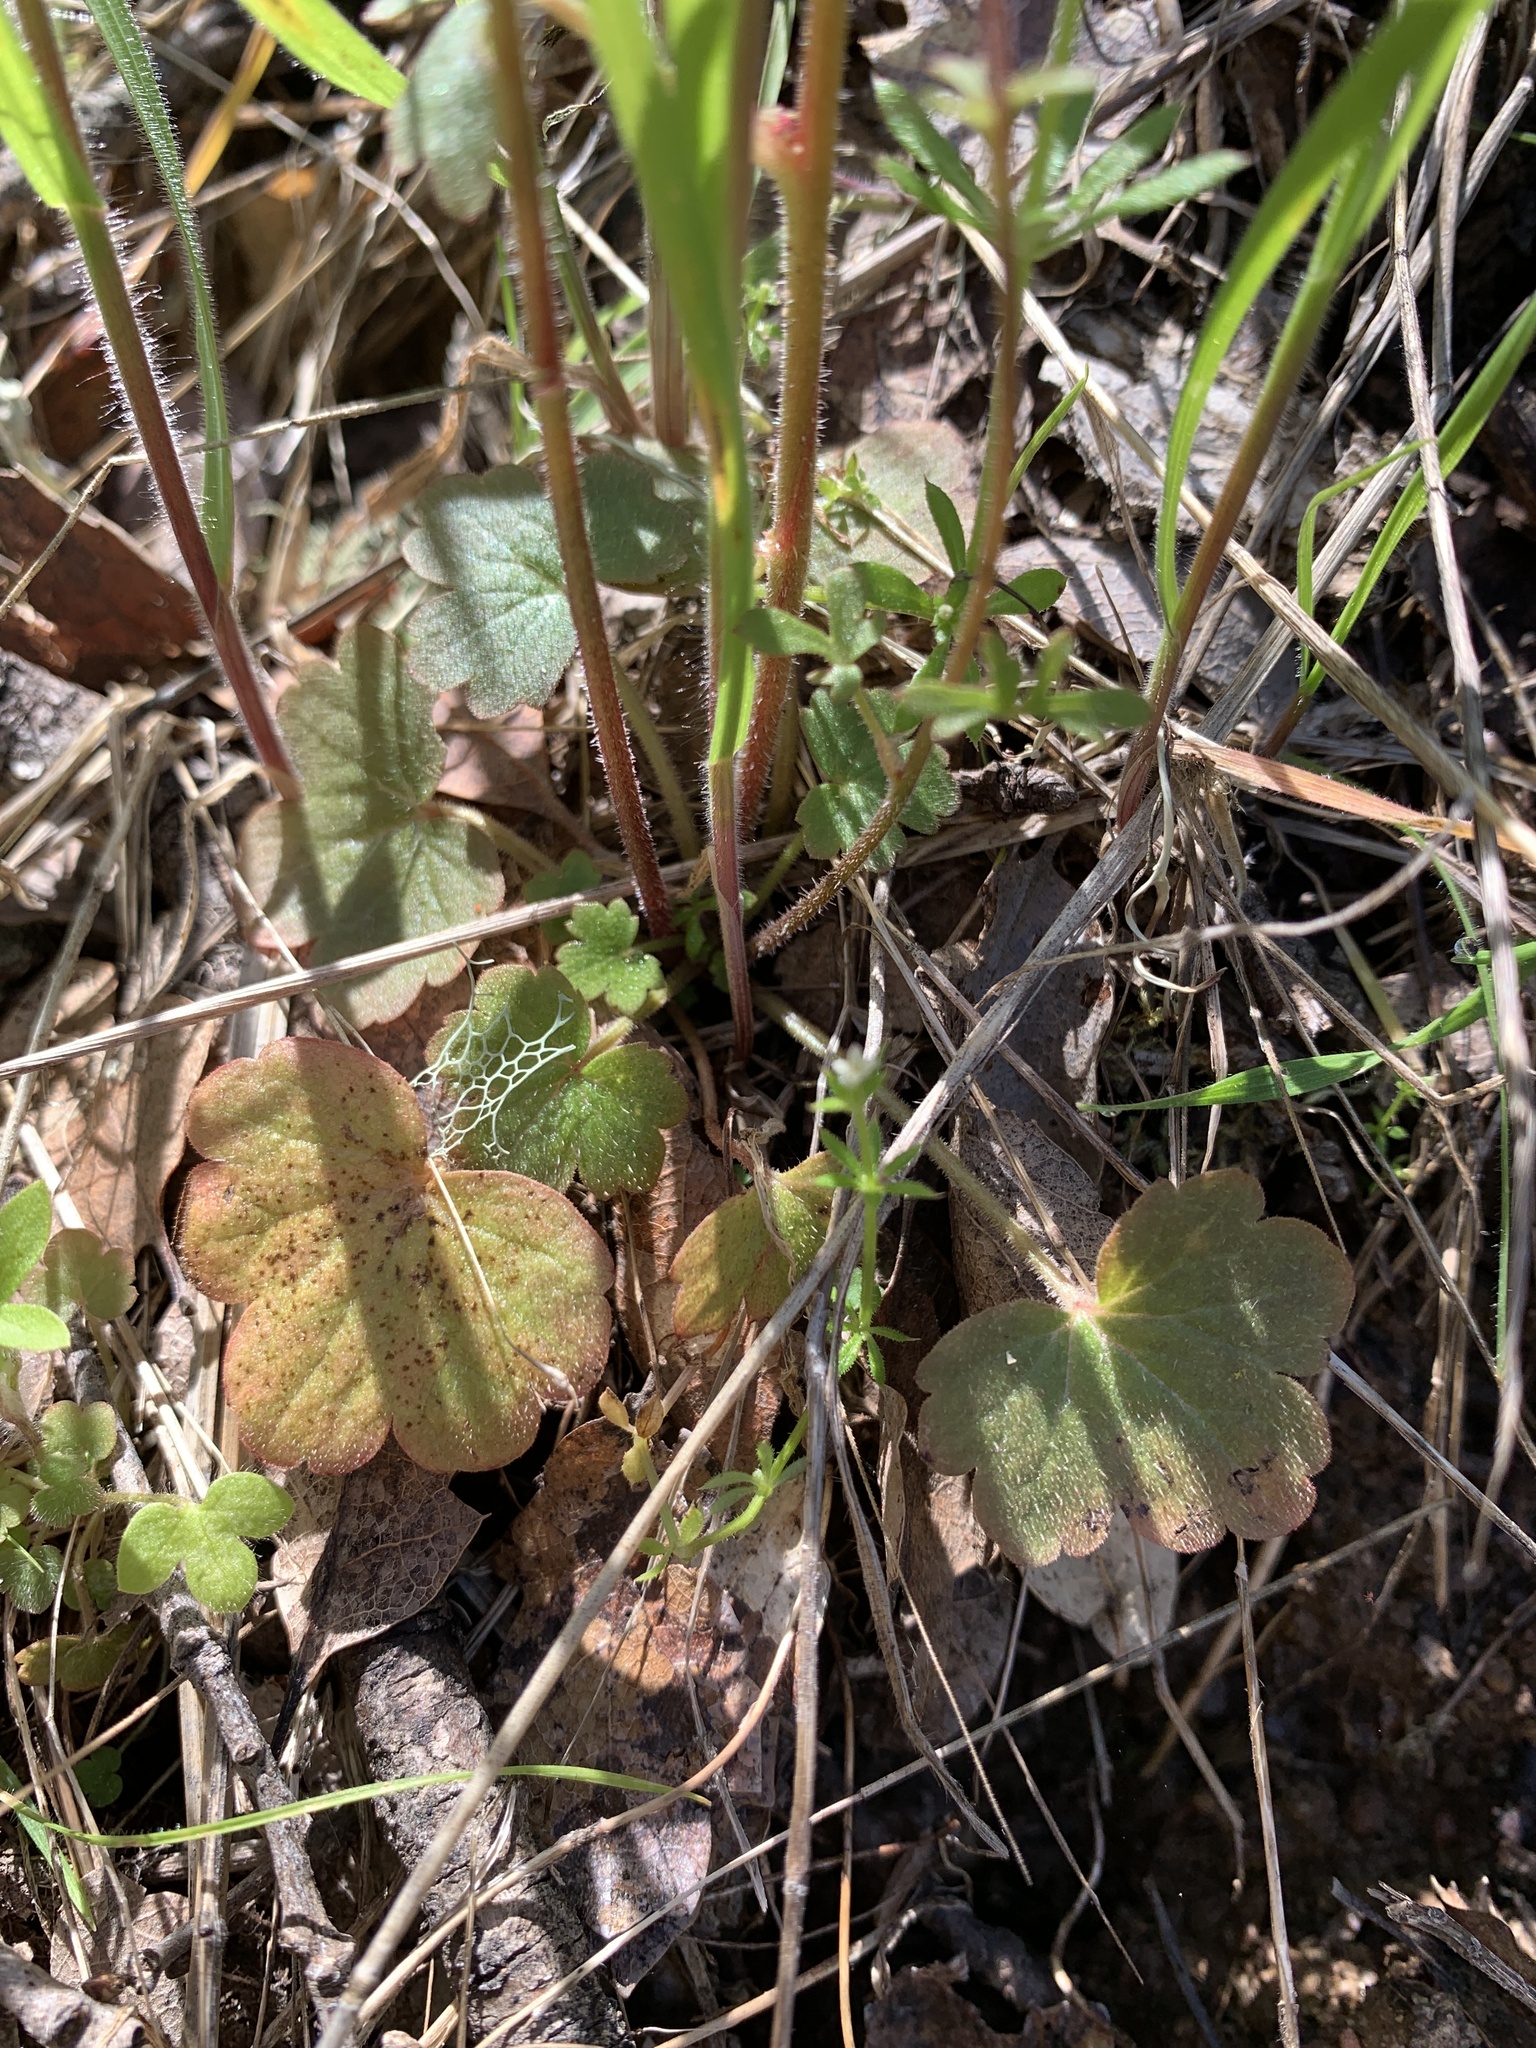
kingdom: Plantae
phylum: Tracheophyta
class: Magnoliopsida
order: Saxifragales
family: Saxifragaceae
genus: Lithophragma
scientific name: Lithophragma heterophyllum
